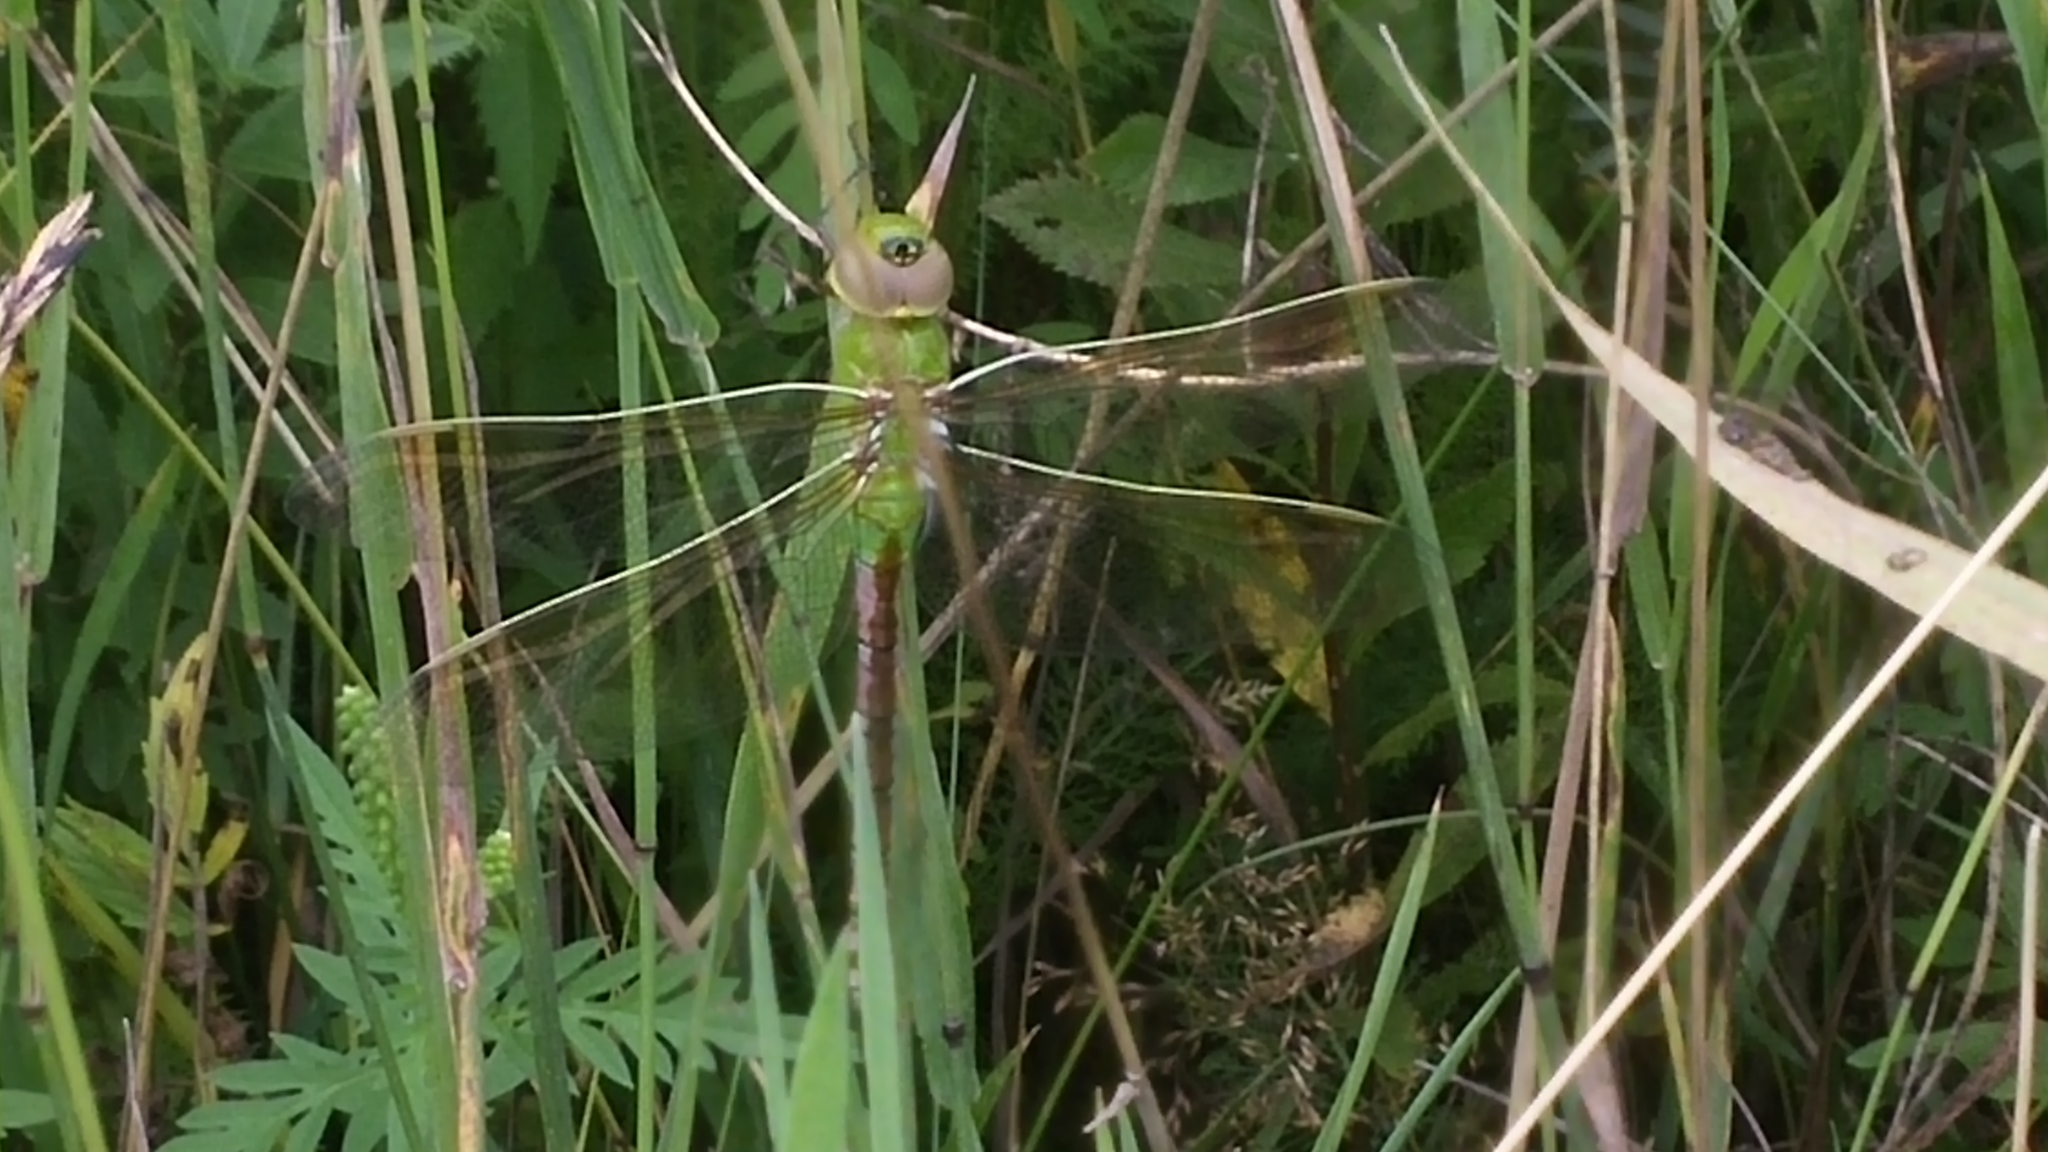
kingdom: Animalia
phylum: Arthropoda
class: Insecta
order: Odonata
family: Aeshnidae
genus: Anax
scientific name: Anax junius
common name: Common green darner
